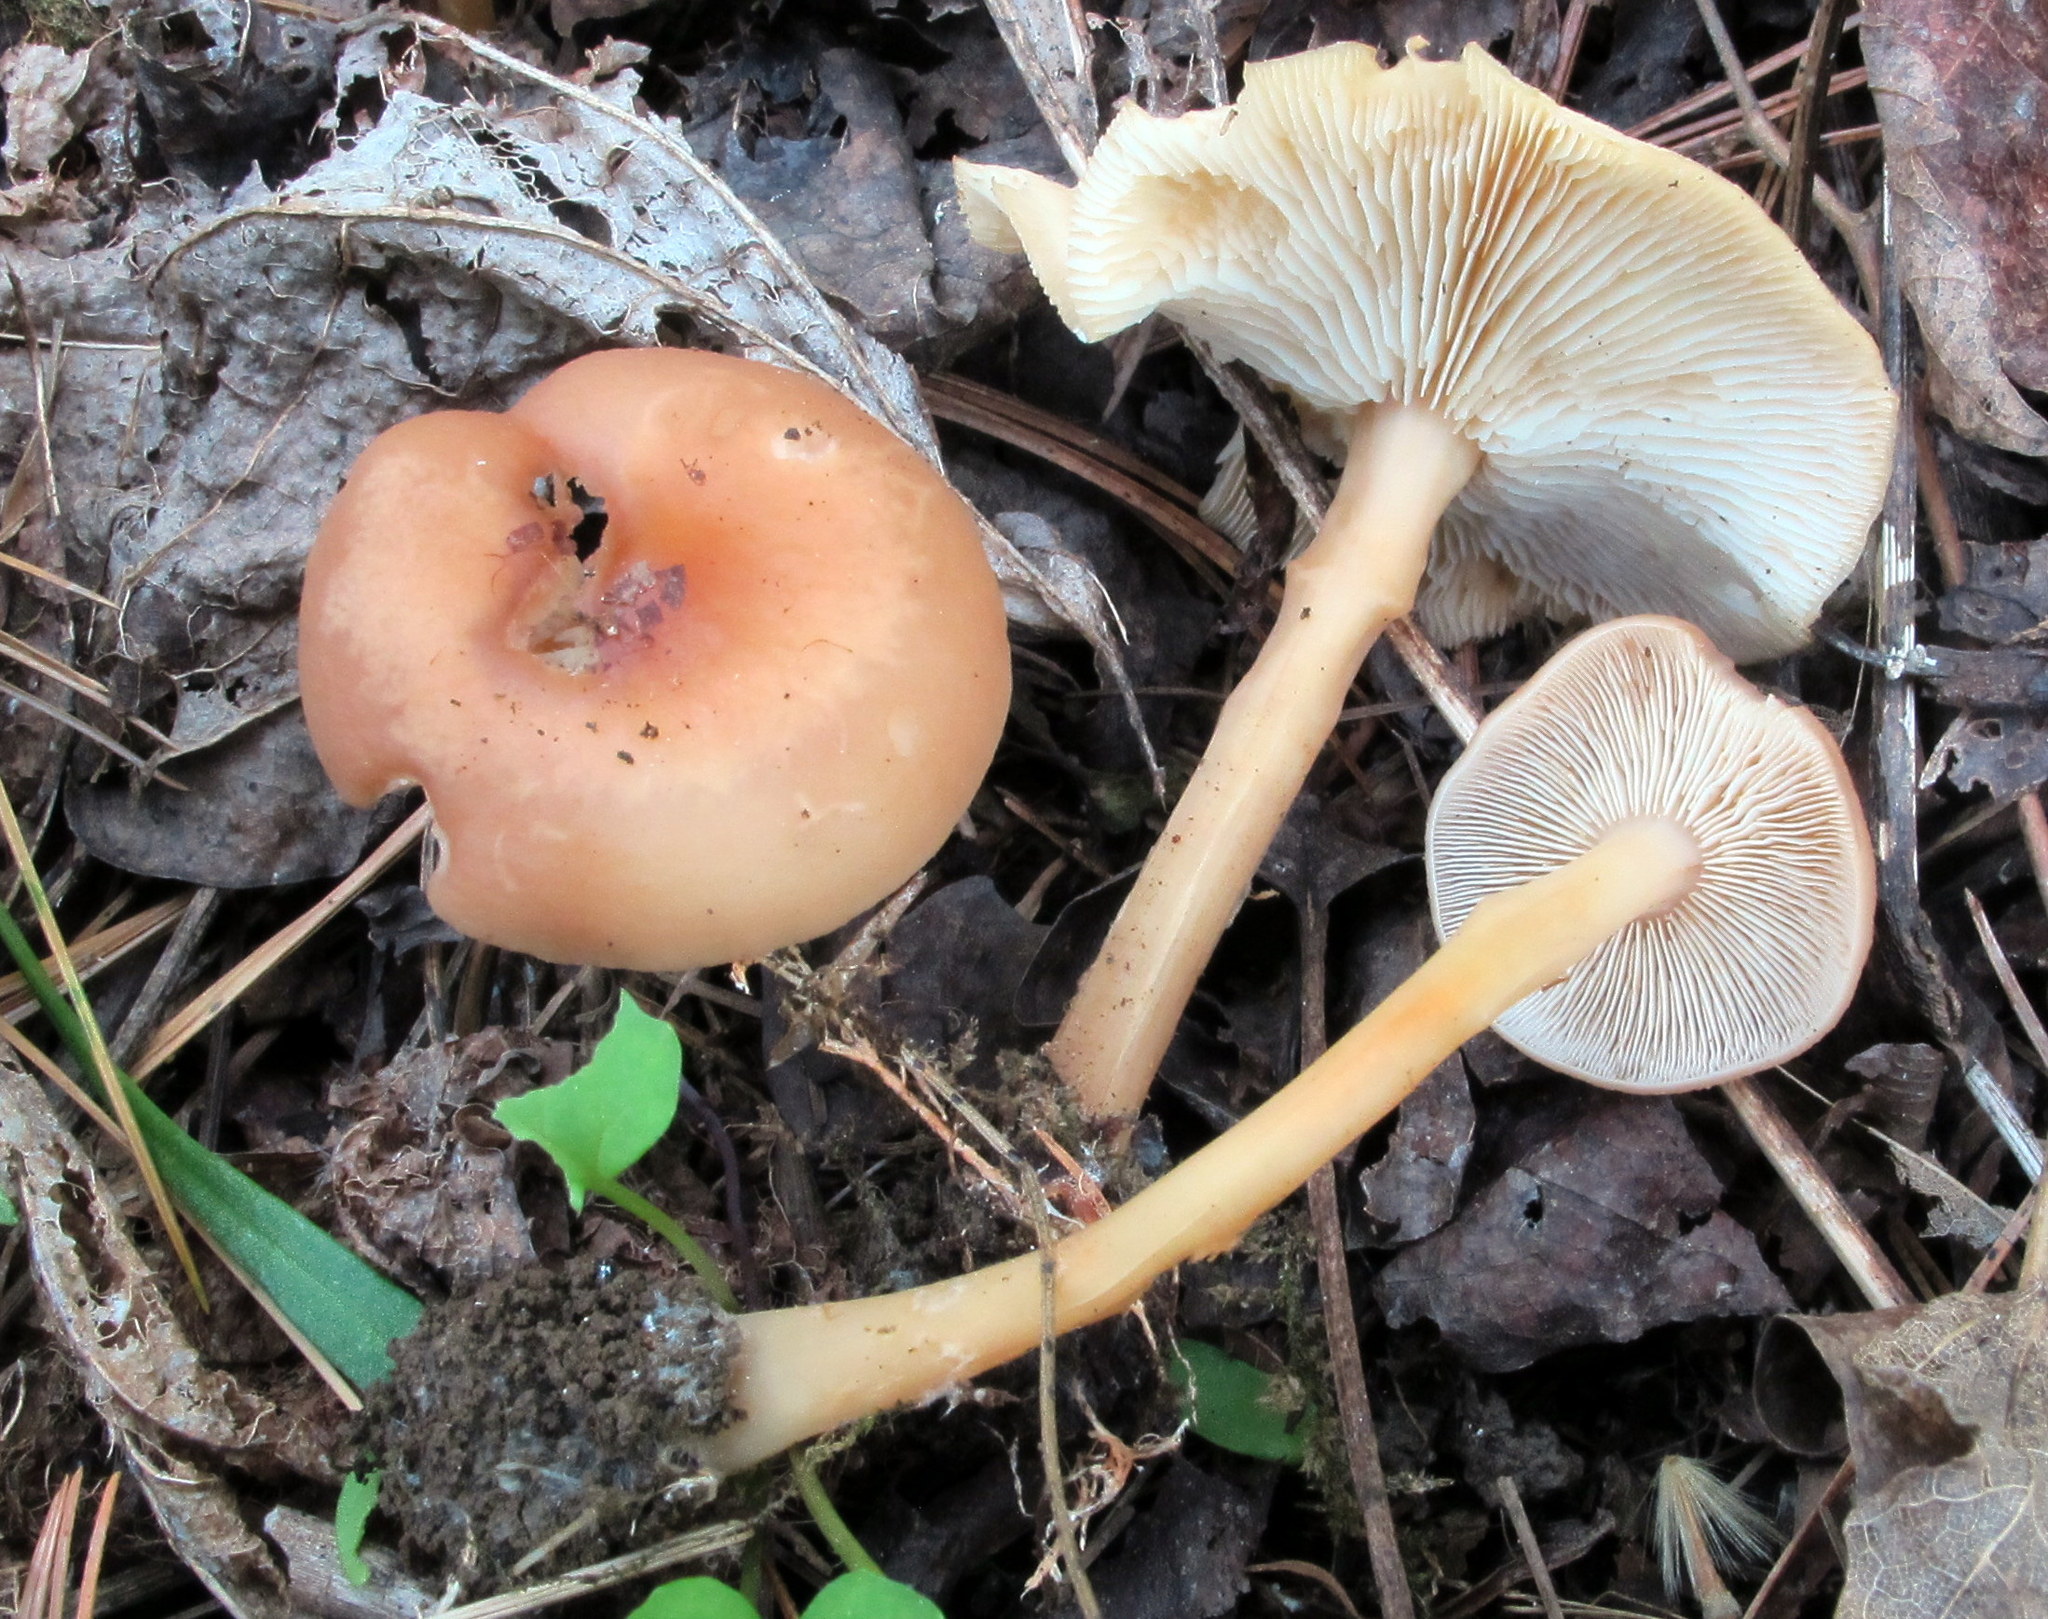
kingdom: Fungi
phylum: Basidiomycota
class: Agaricomycetes
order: Agaricales
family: Omphalotaceae
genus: Gymnopus
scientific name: Gymnopus earleae
